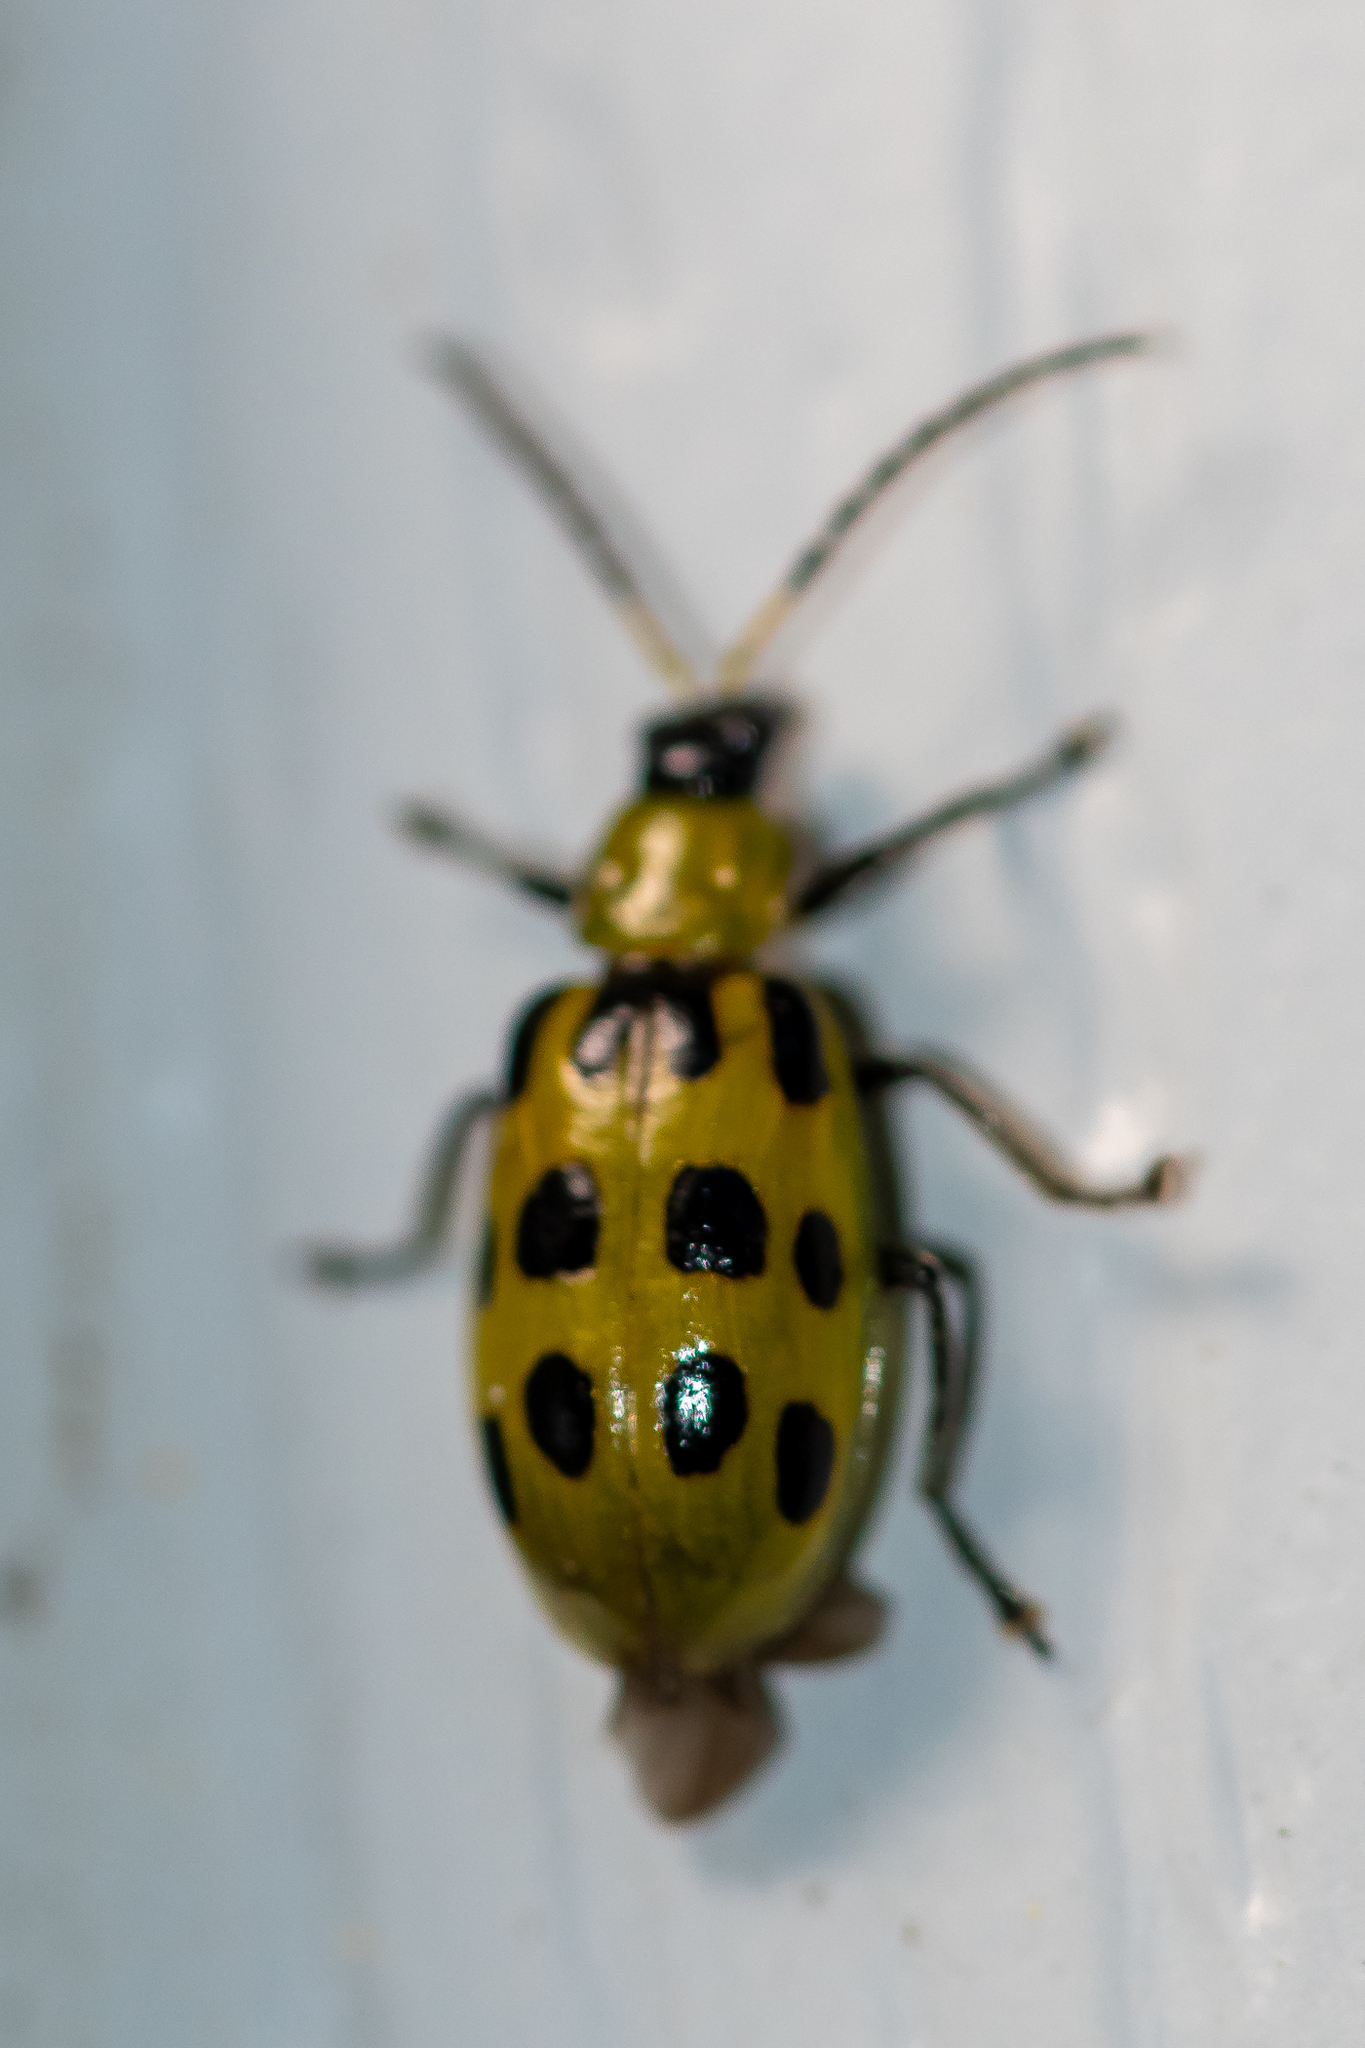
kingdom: Animalia
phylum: Arthropoda
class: Insecta
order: Coleoptera
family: Chrysomelidae
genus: Diabrotica
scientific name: Diabrotica undecimpunctata
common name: Spotted cucumber beetle
